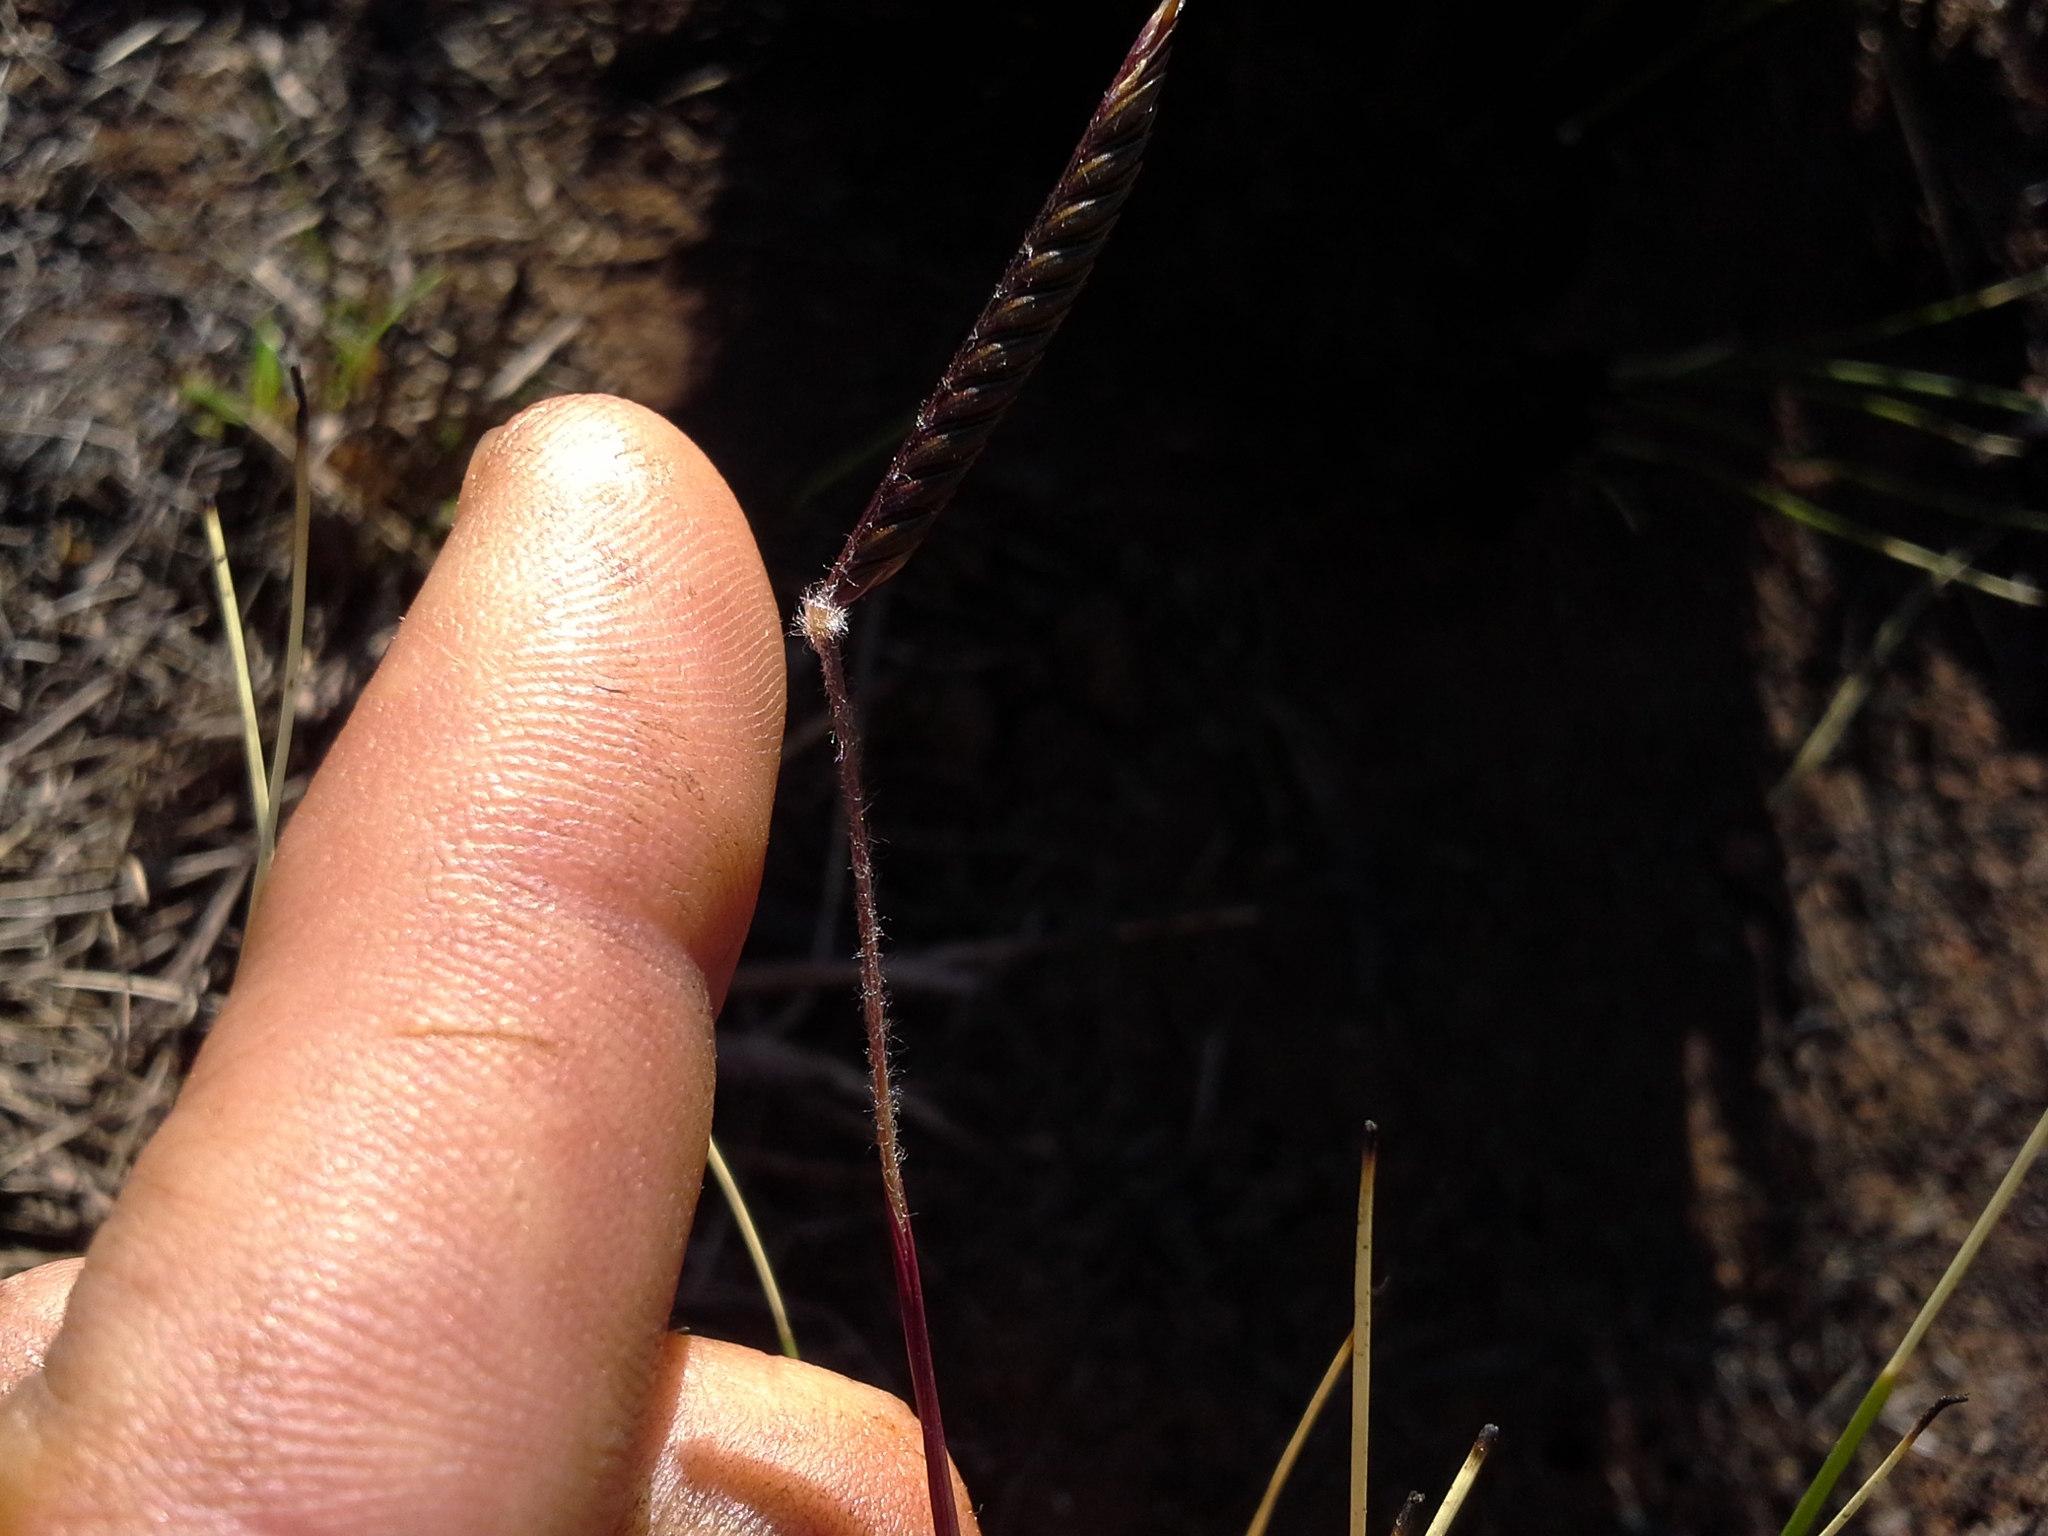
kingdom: Plantae
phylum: Tracheophyta
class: Liliopsida
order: Poales
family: Poaceae
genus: Microchloa
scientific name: Microchloa altera
